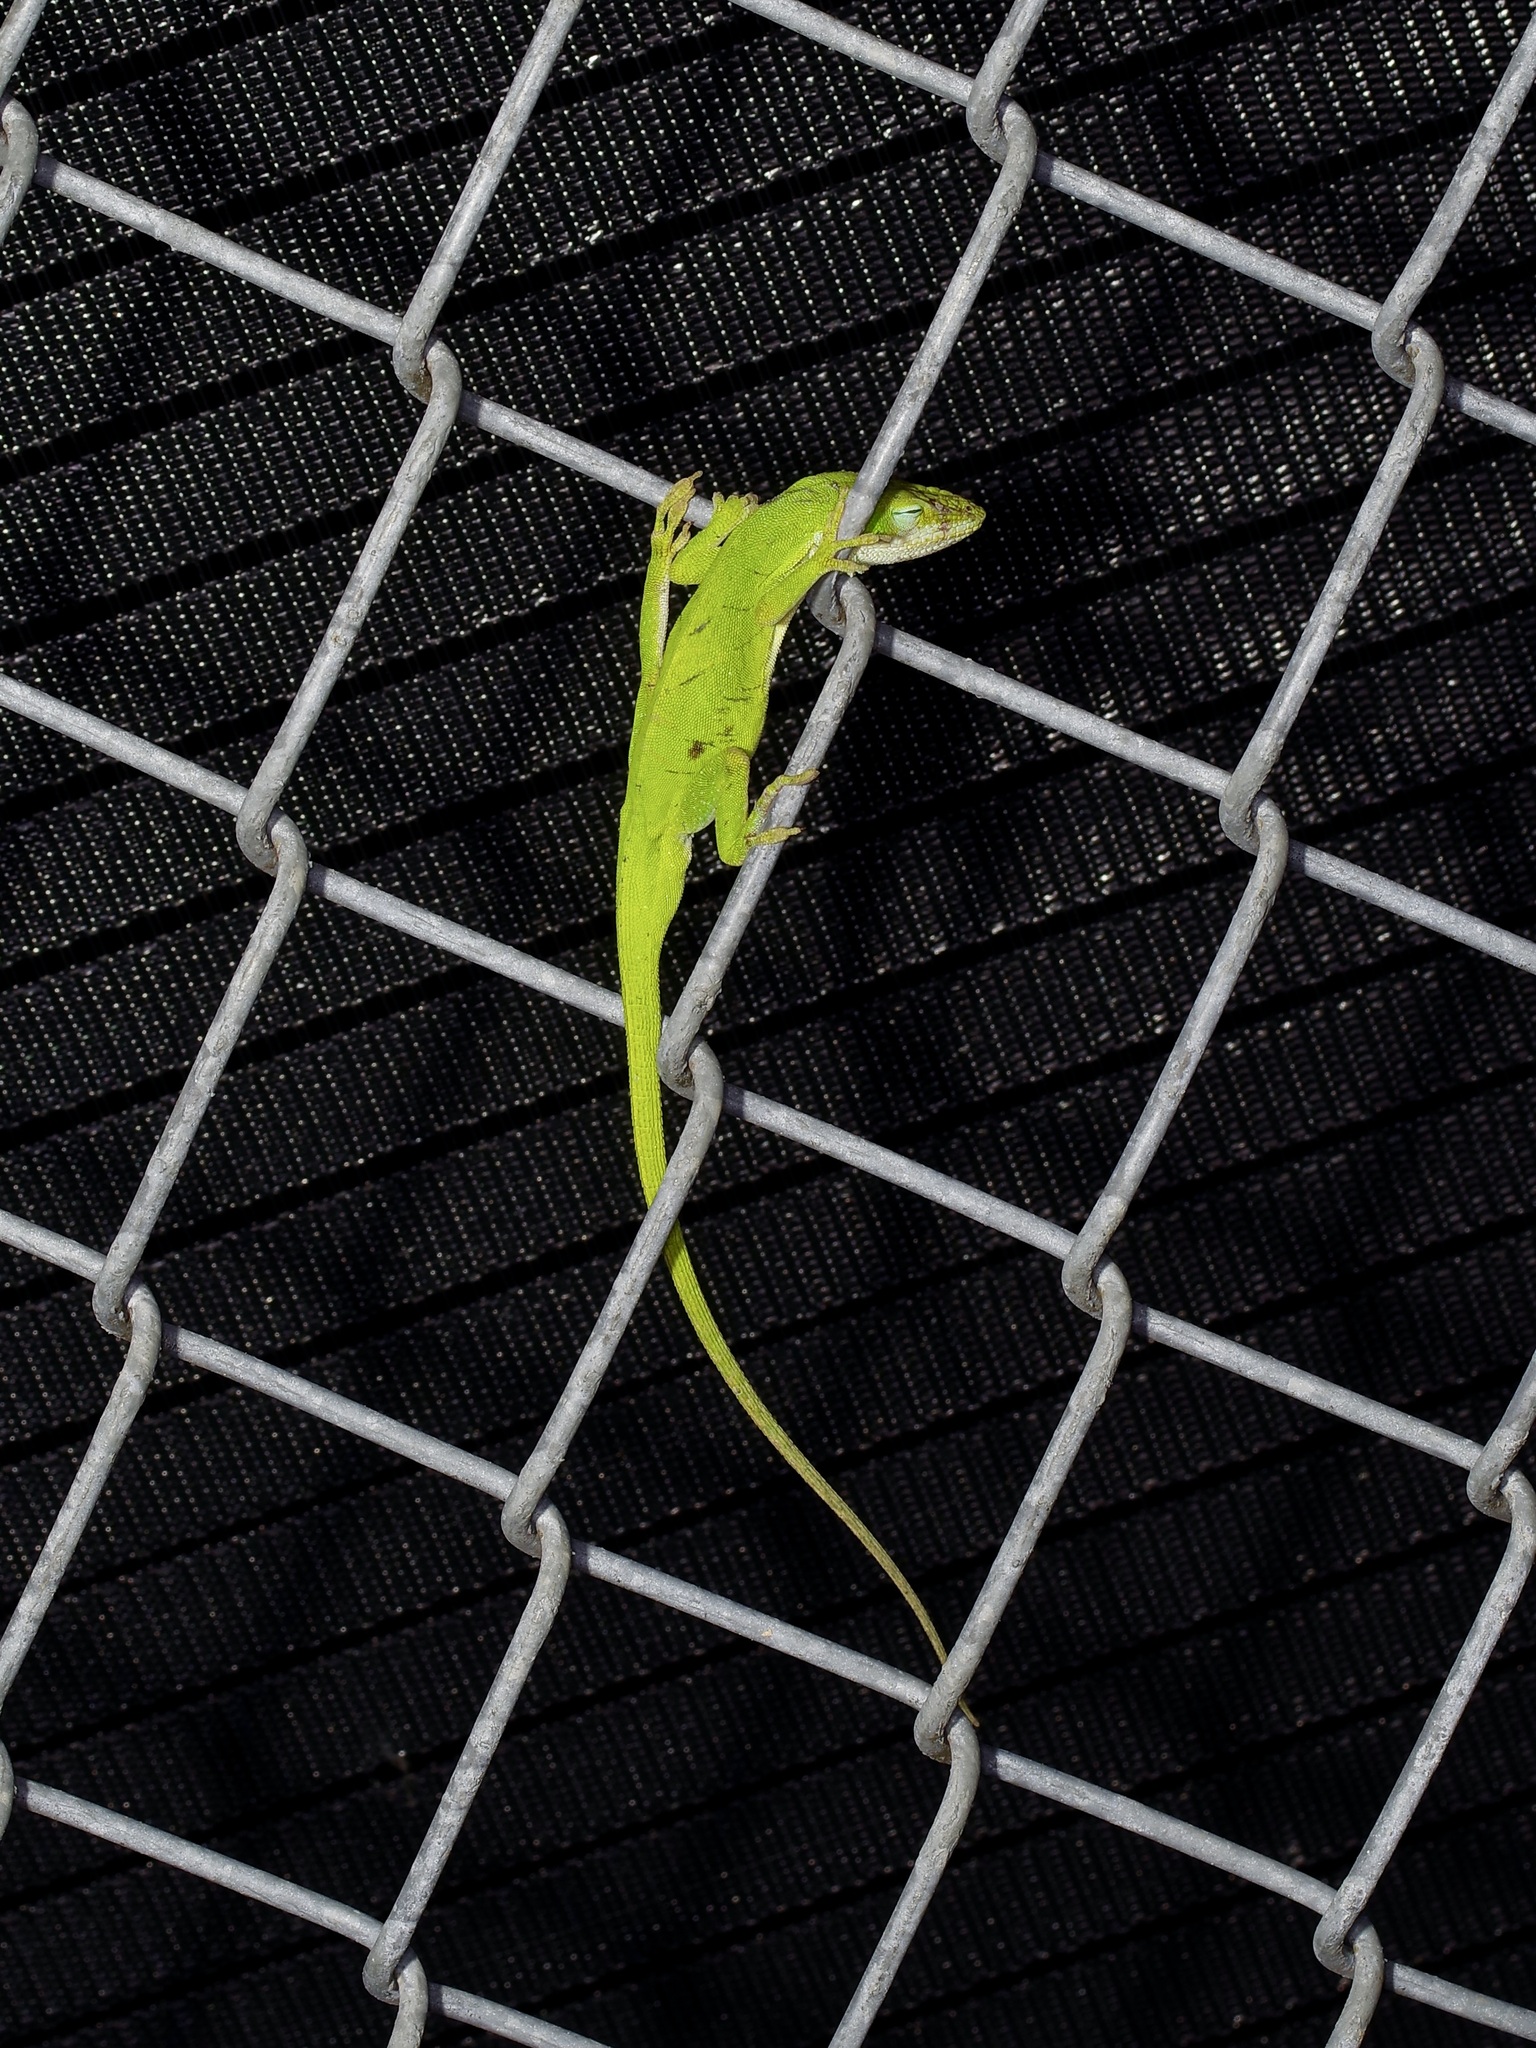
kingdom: Animalia
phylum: Chordata
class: Squamata
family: Dactyloidae
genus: Anolis
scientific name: Anolis carolinensis
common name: Green anole
